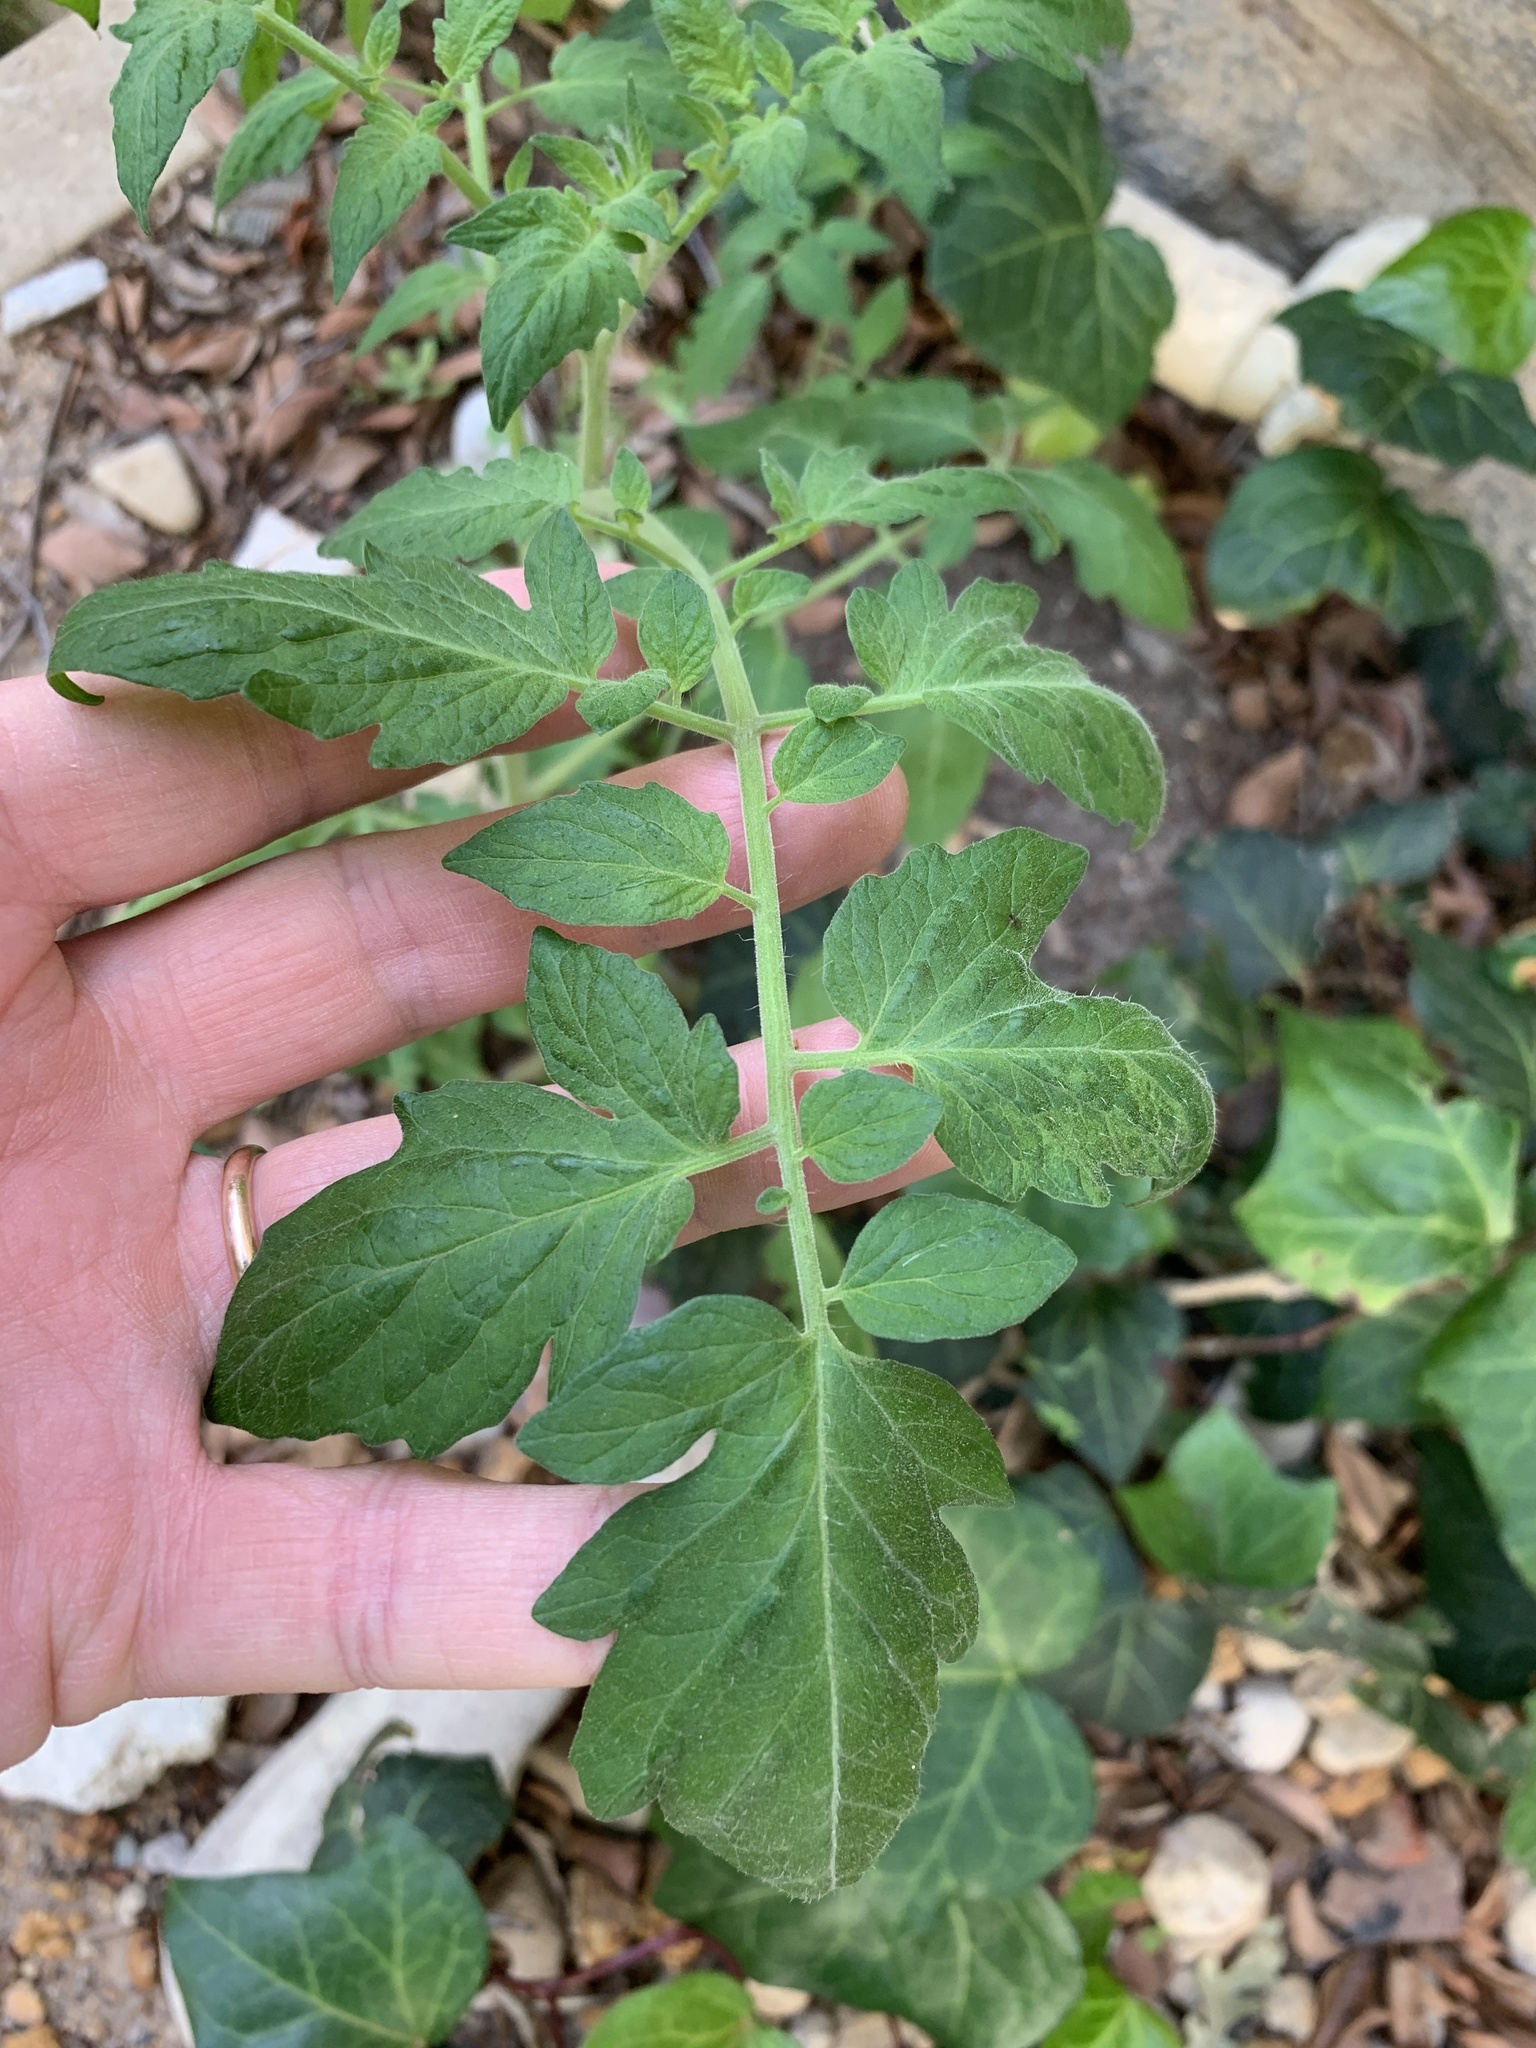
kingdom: Plantae
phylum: Tracheophyta
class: Magnoliopsida
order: Solanales
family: Solanaceae
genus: Solanum
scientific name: Solanum lycopersicum
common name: Garden tomato
